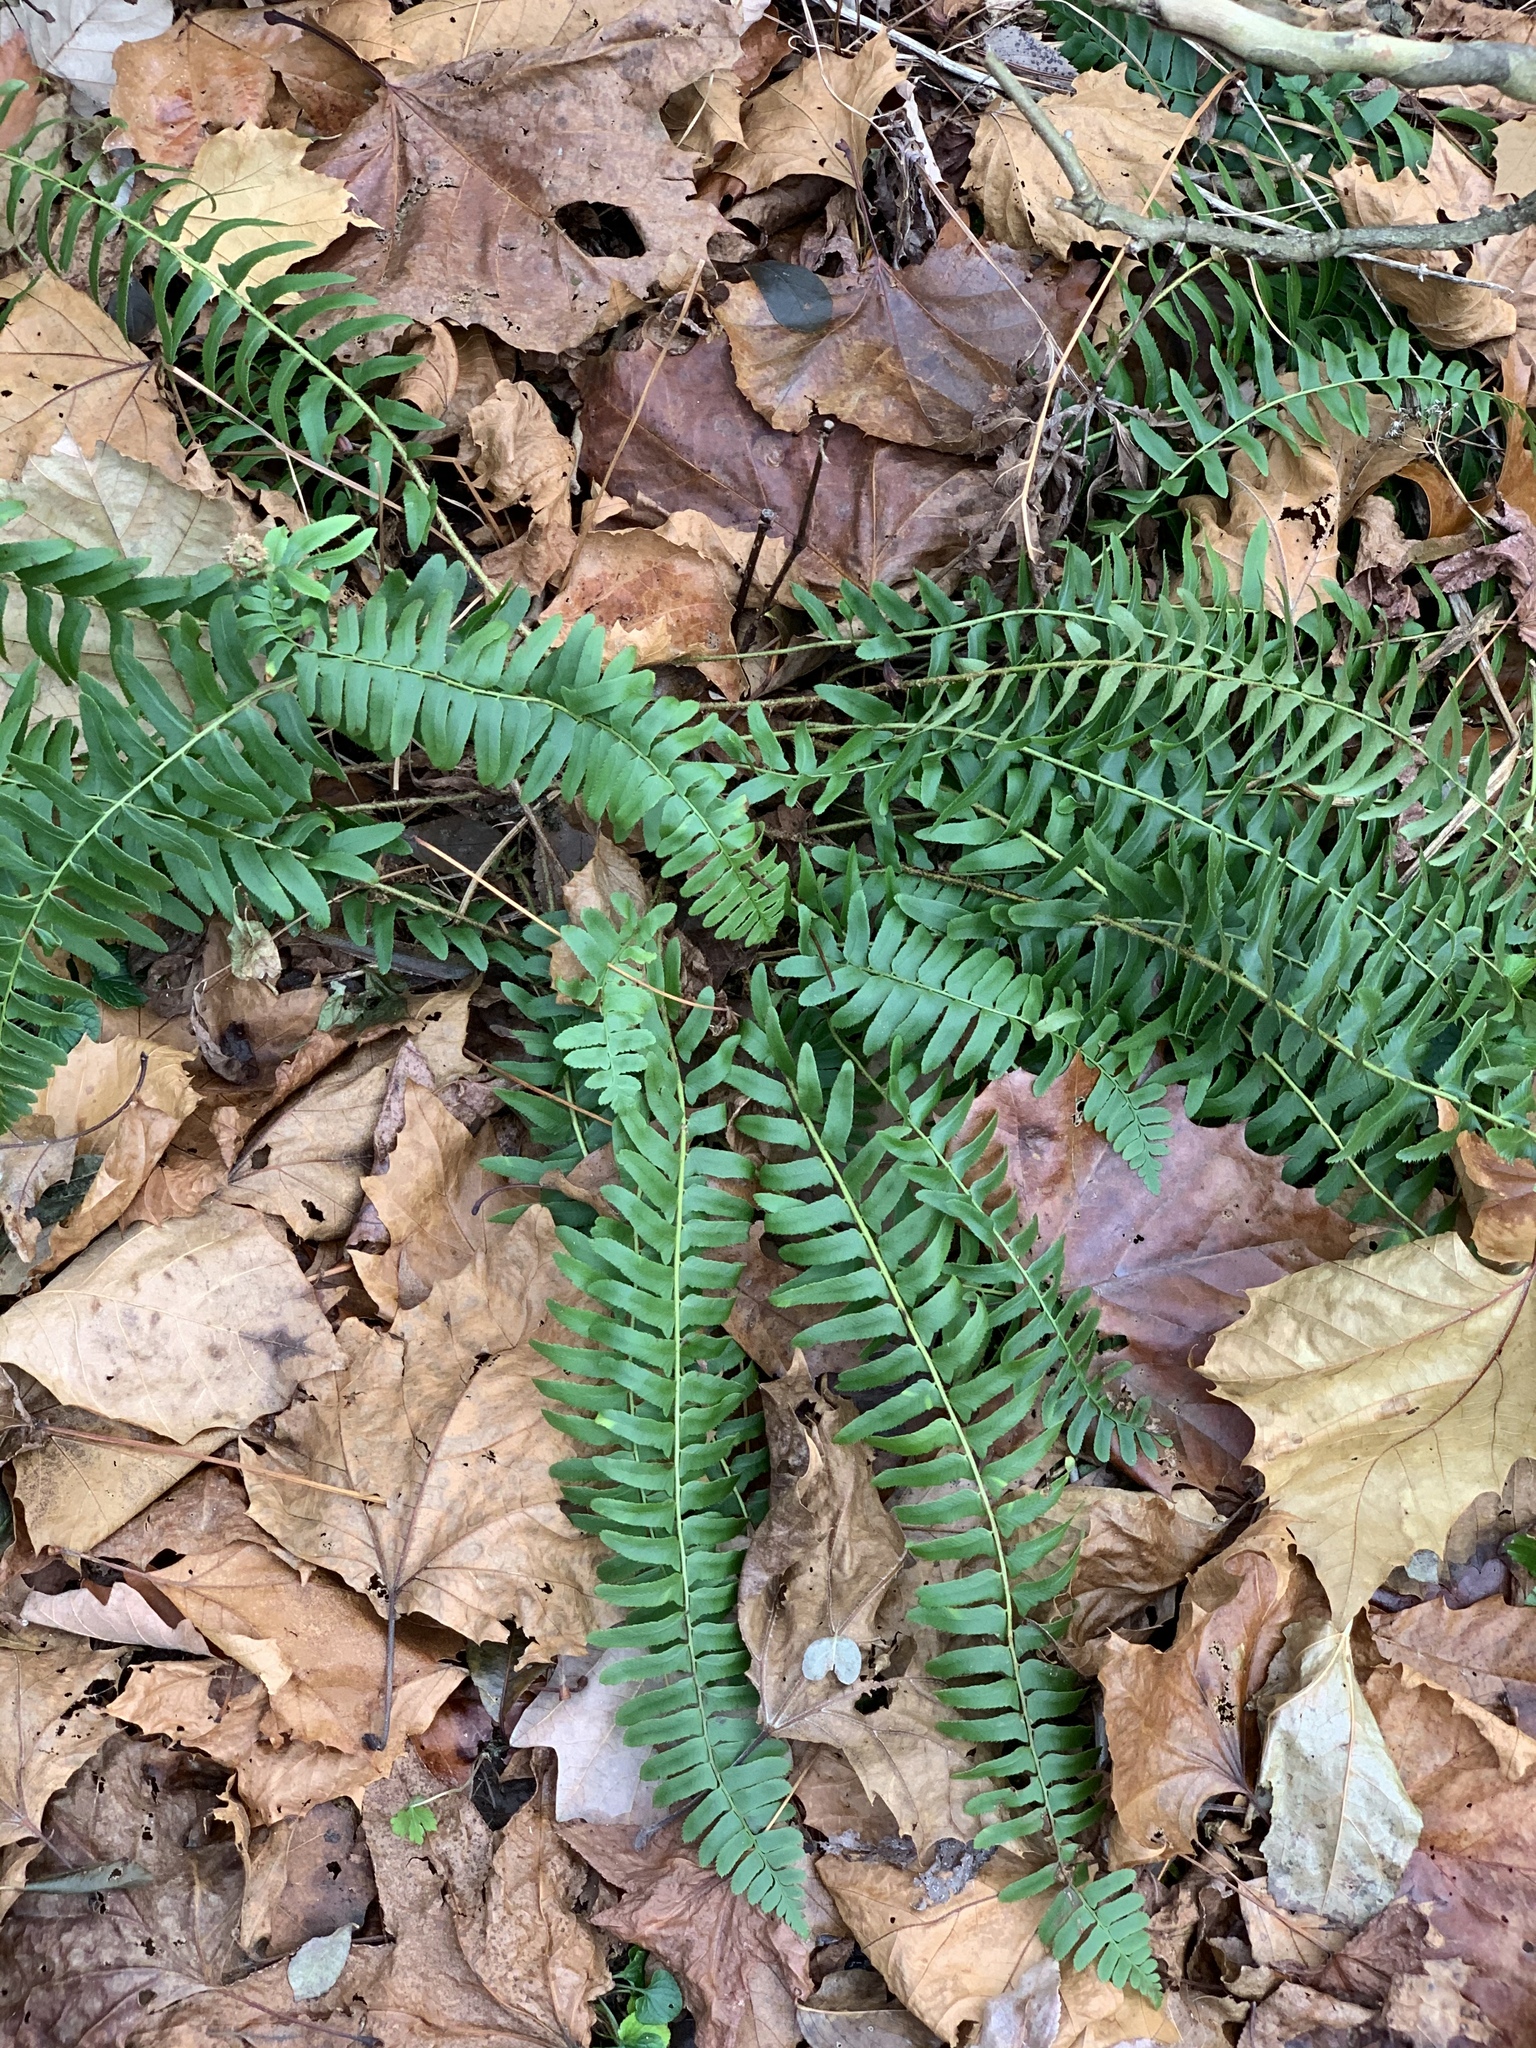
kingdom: Plantae
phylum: Tracheophyta
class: Polypodiopsida
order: Polypodiales
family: Dryopteridaceae
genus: Polystichum
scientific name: Polystichum acrostichoides
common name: Christmas fern
